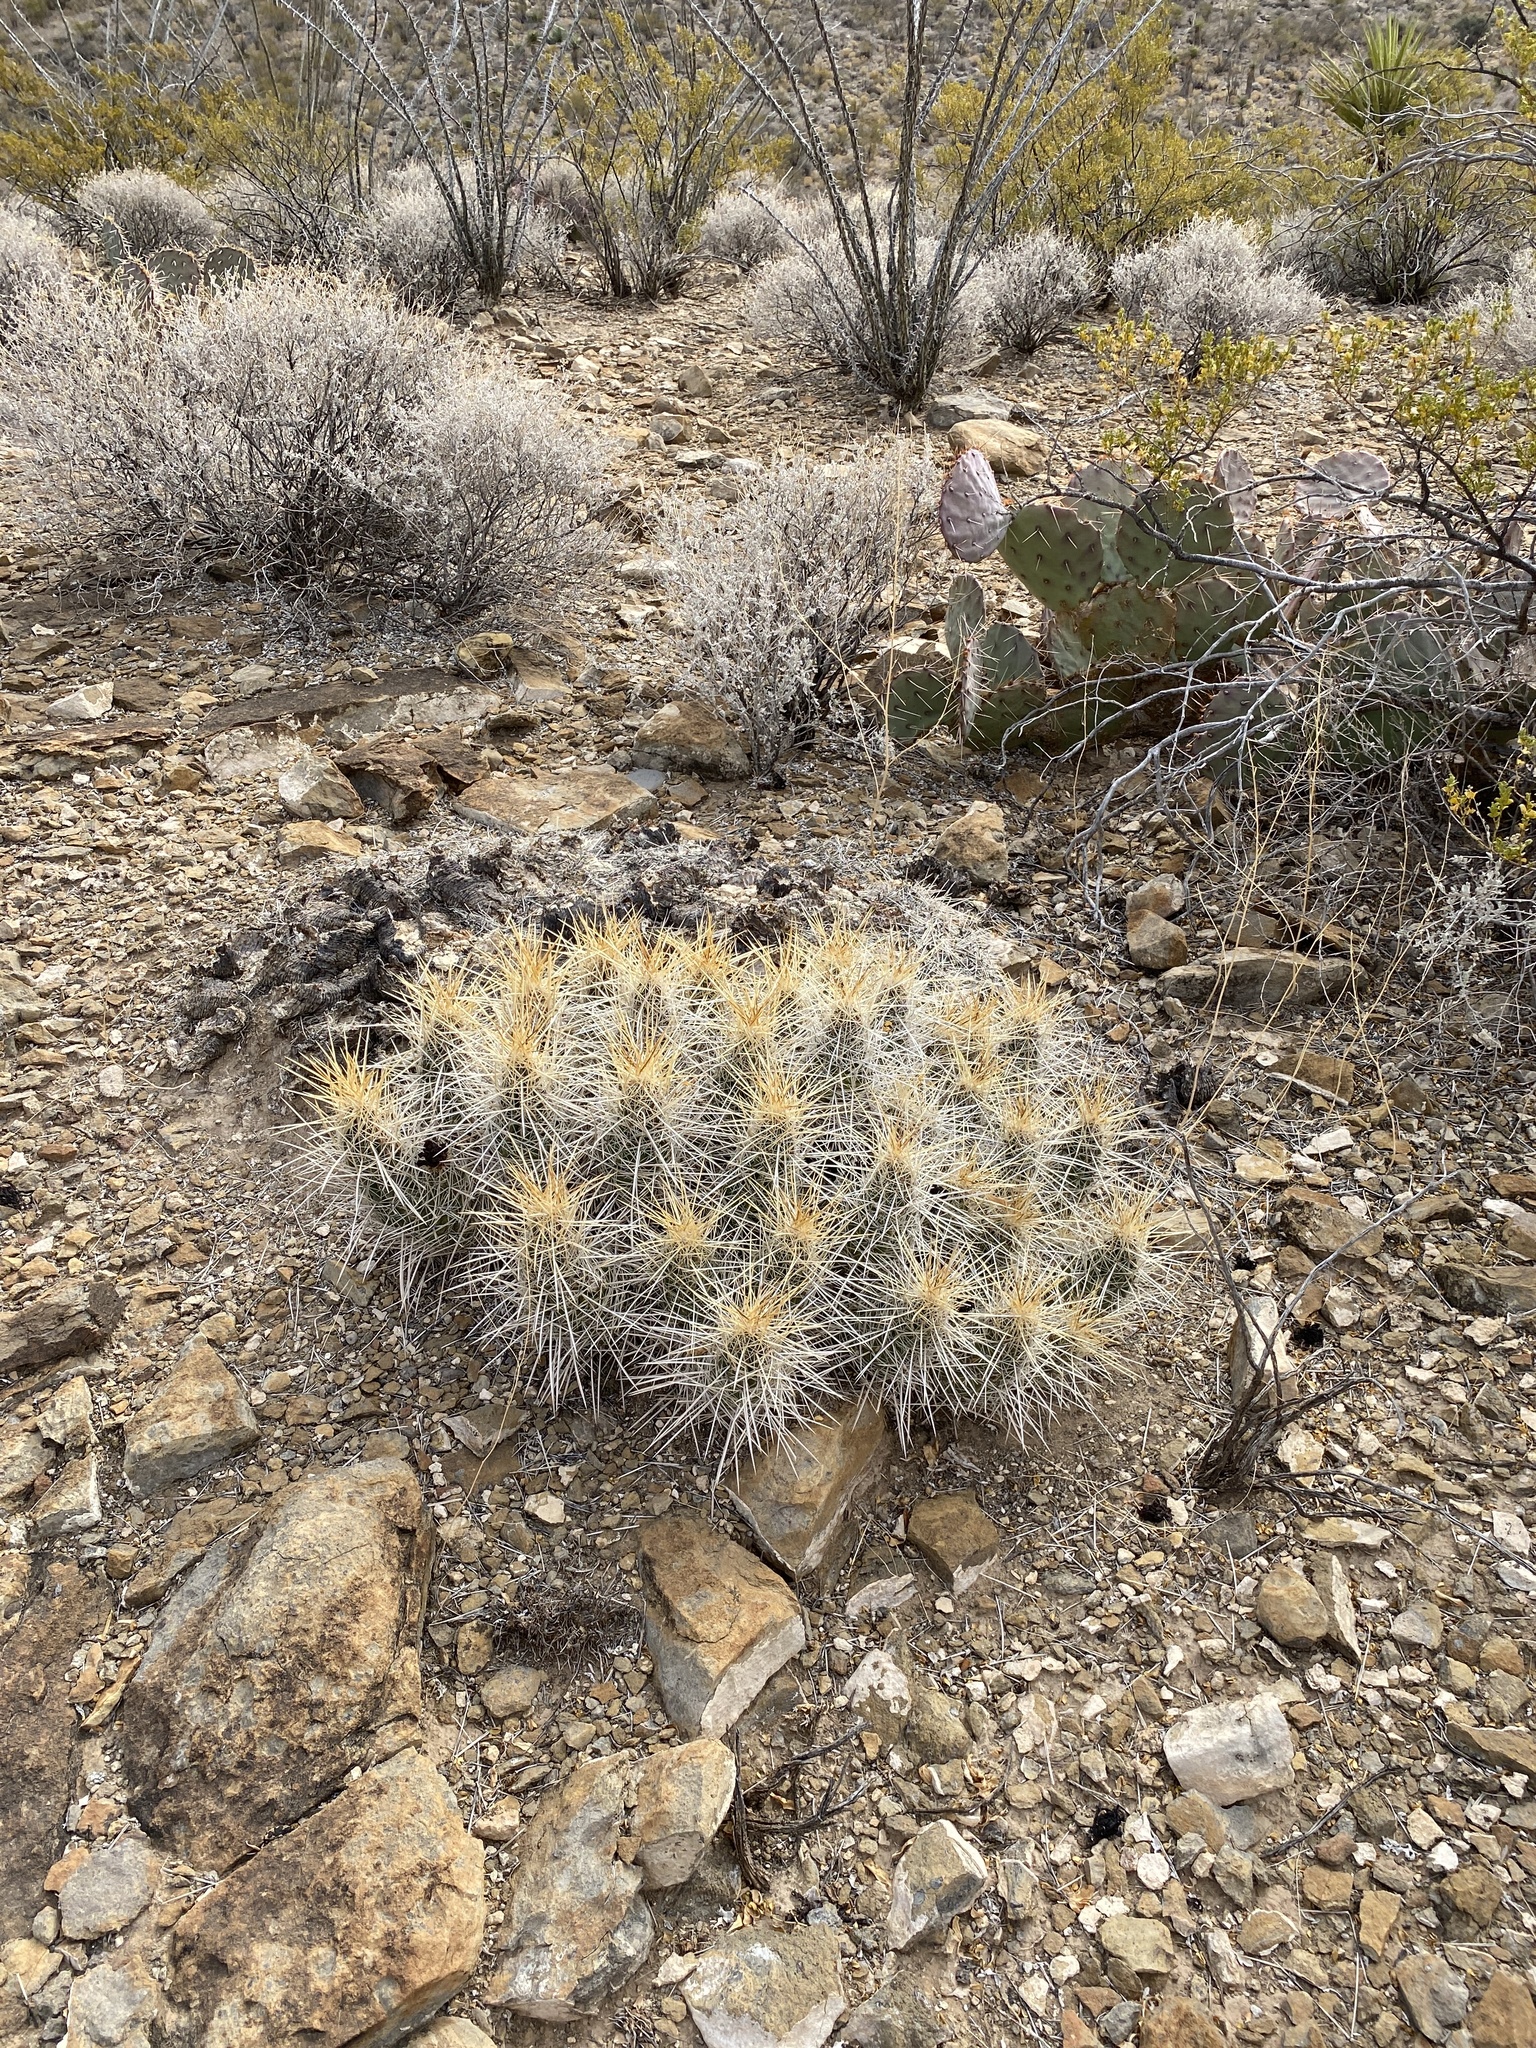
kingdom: Plantae
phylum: Tracheophyta
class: Magnoliopsida
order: Caryophyllales
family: Cactaceae
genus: Echinocereus
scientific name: Echinocereus stramineus
